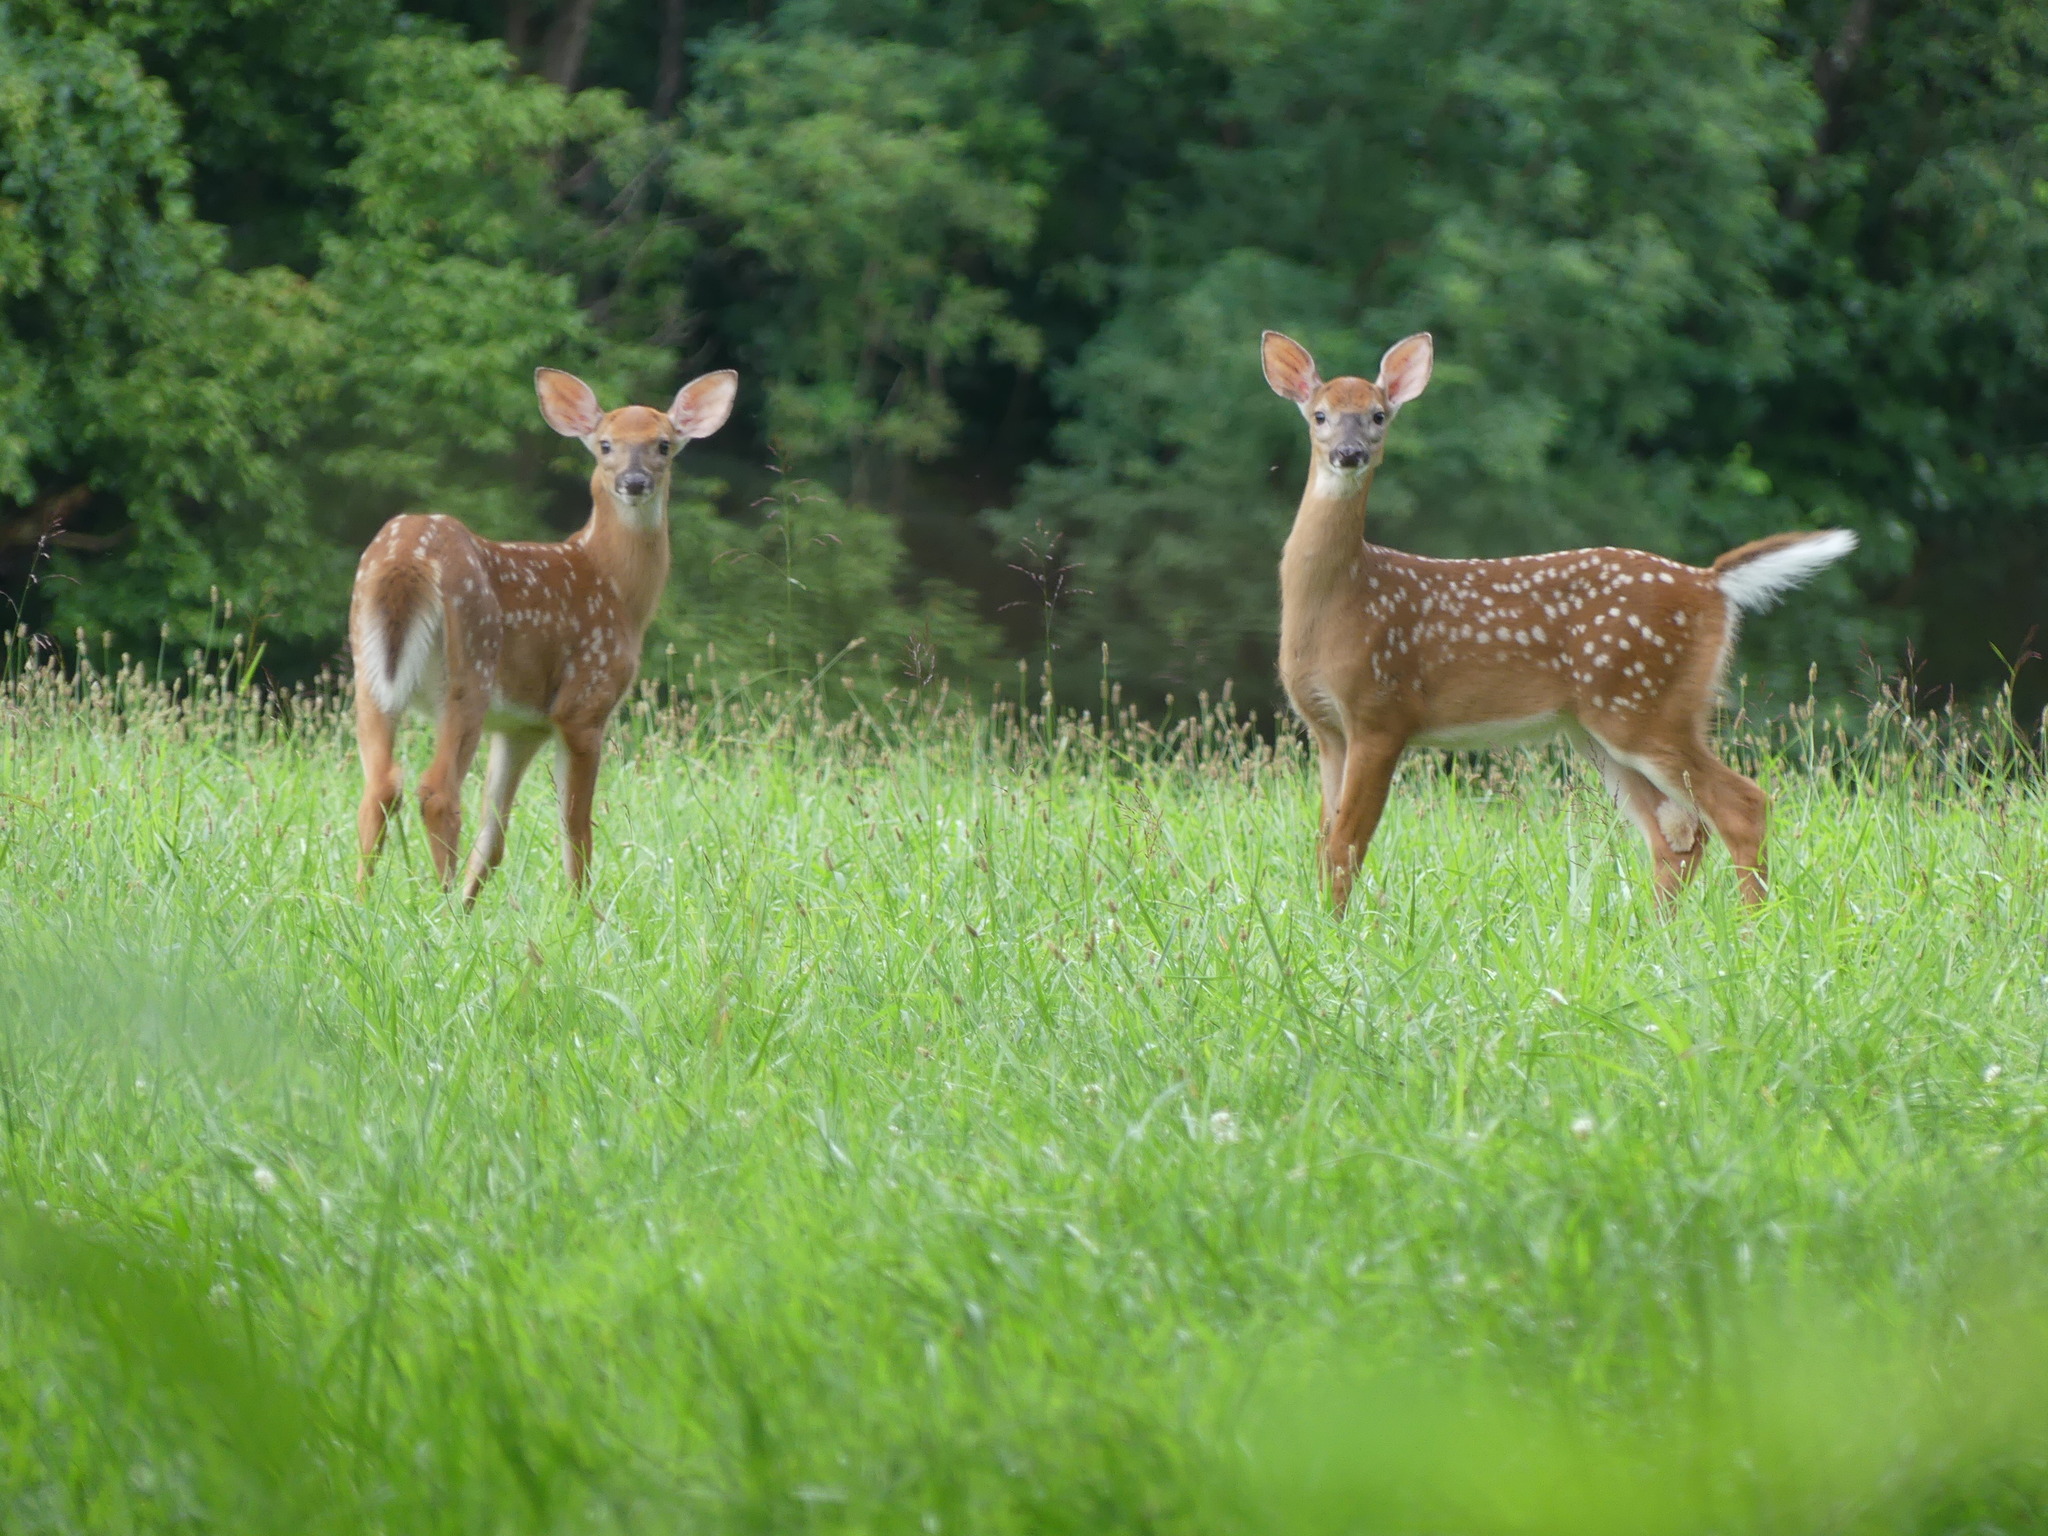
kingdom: Animalia
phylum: Chordata
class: Mammalia
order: Artiodactyla
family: Cervidae
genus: Odocoileus
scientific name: Odocoileus virginianus
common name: White-tailed deer
